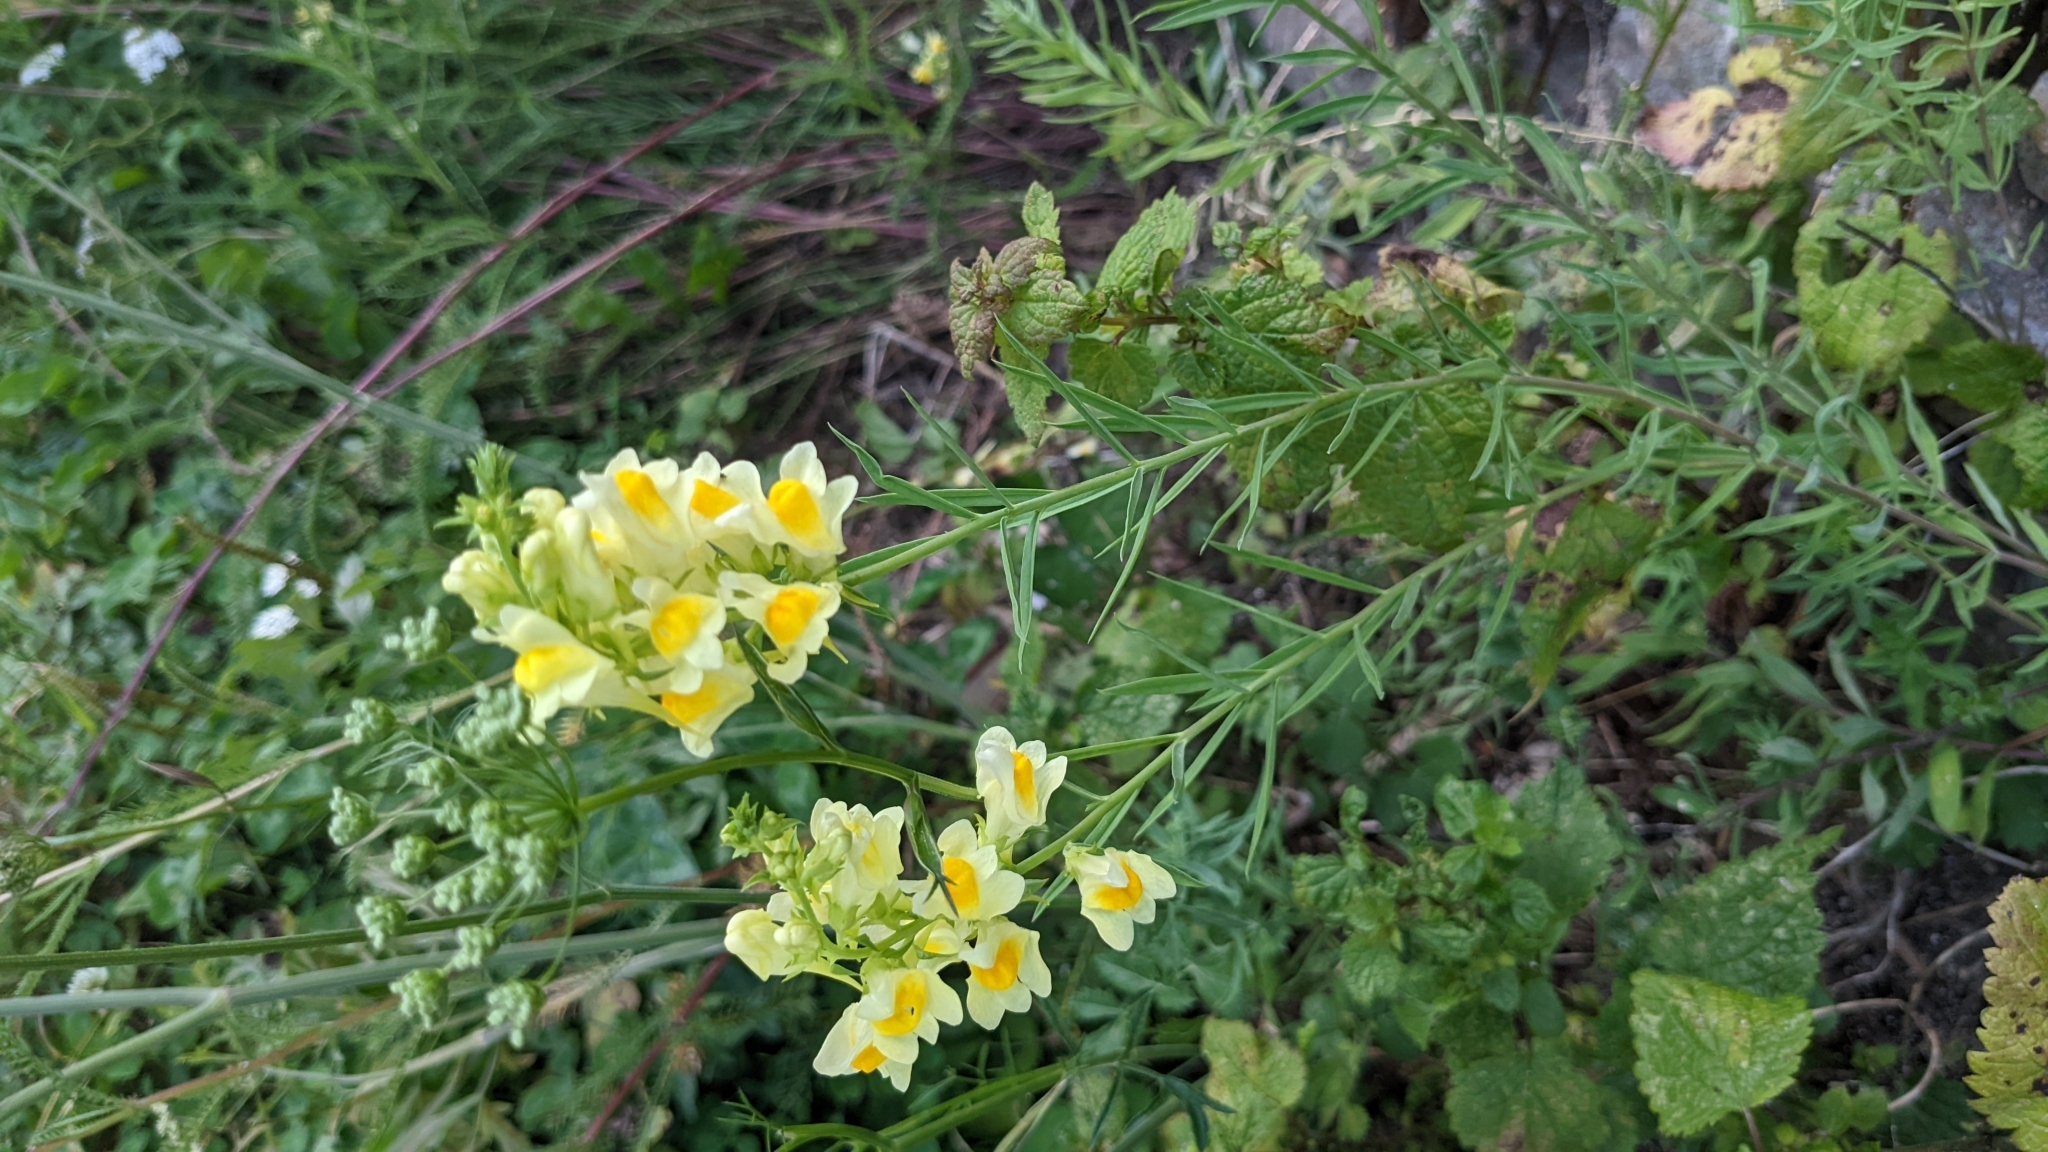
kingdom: Plantae
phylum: Tracheophyta
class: Magnoliopsida
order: Lamiales
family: Plantaginaceae
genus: Linaria
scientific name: Linaria vulgaris
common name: Butter and eggs
